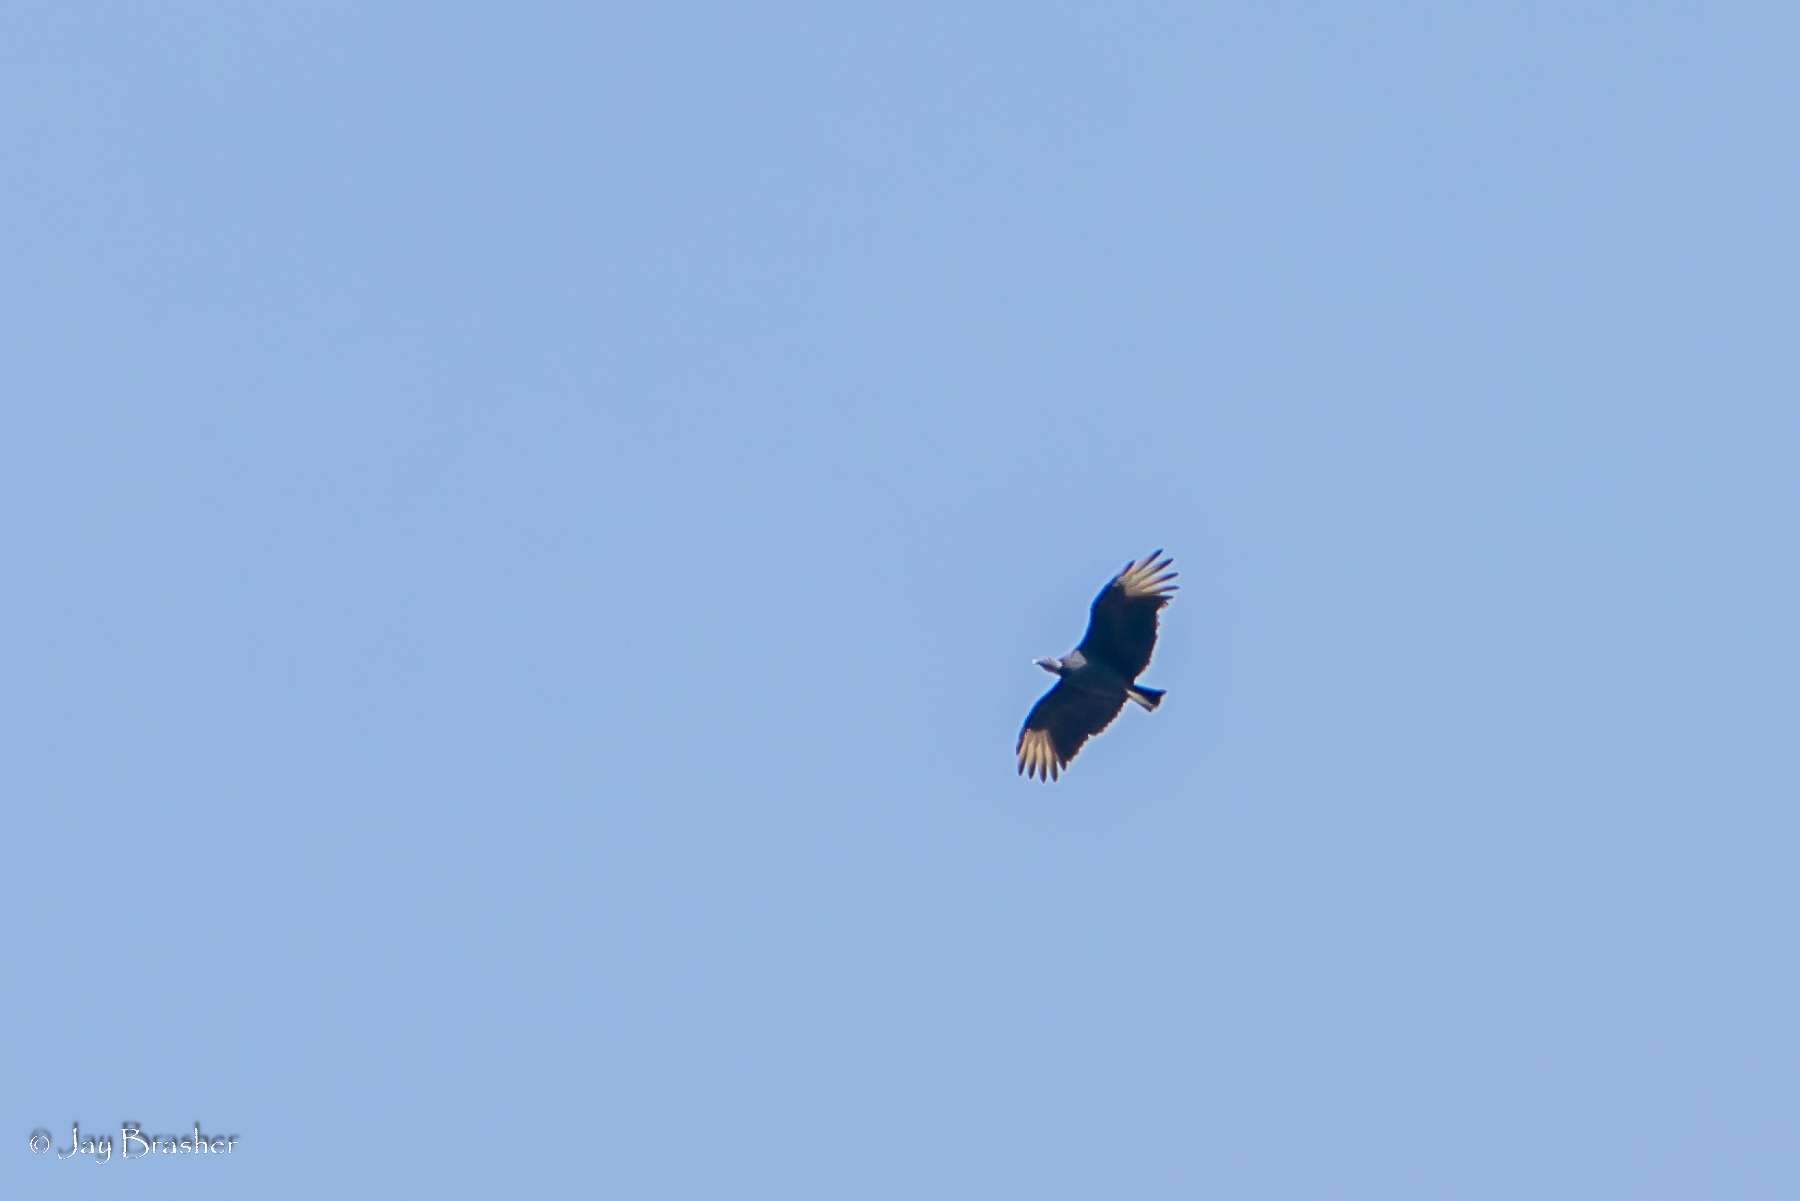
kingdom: Animalia
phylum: Chordata
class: Aves
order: Accipitriformes
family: Cathartidae
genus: Coragyps
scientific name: Coragyps atratus
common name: Black vulture
